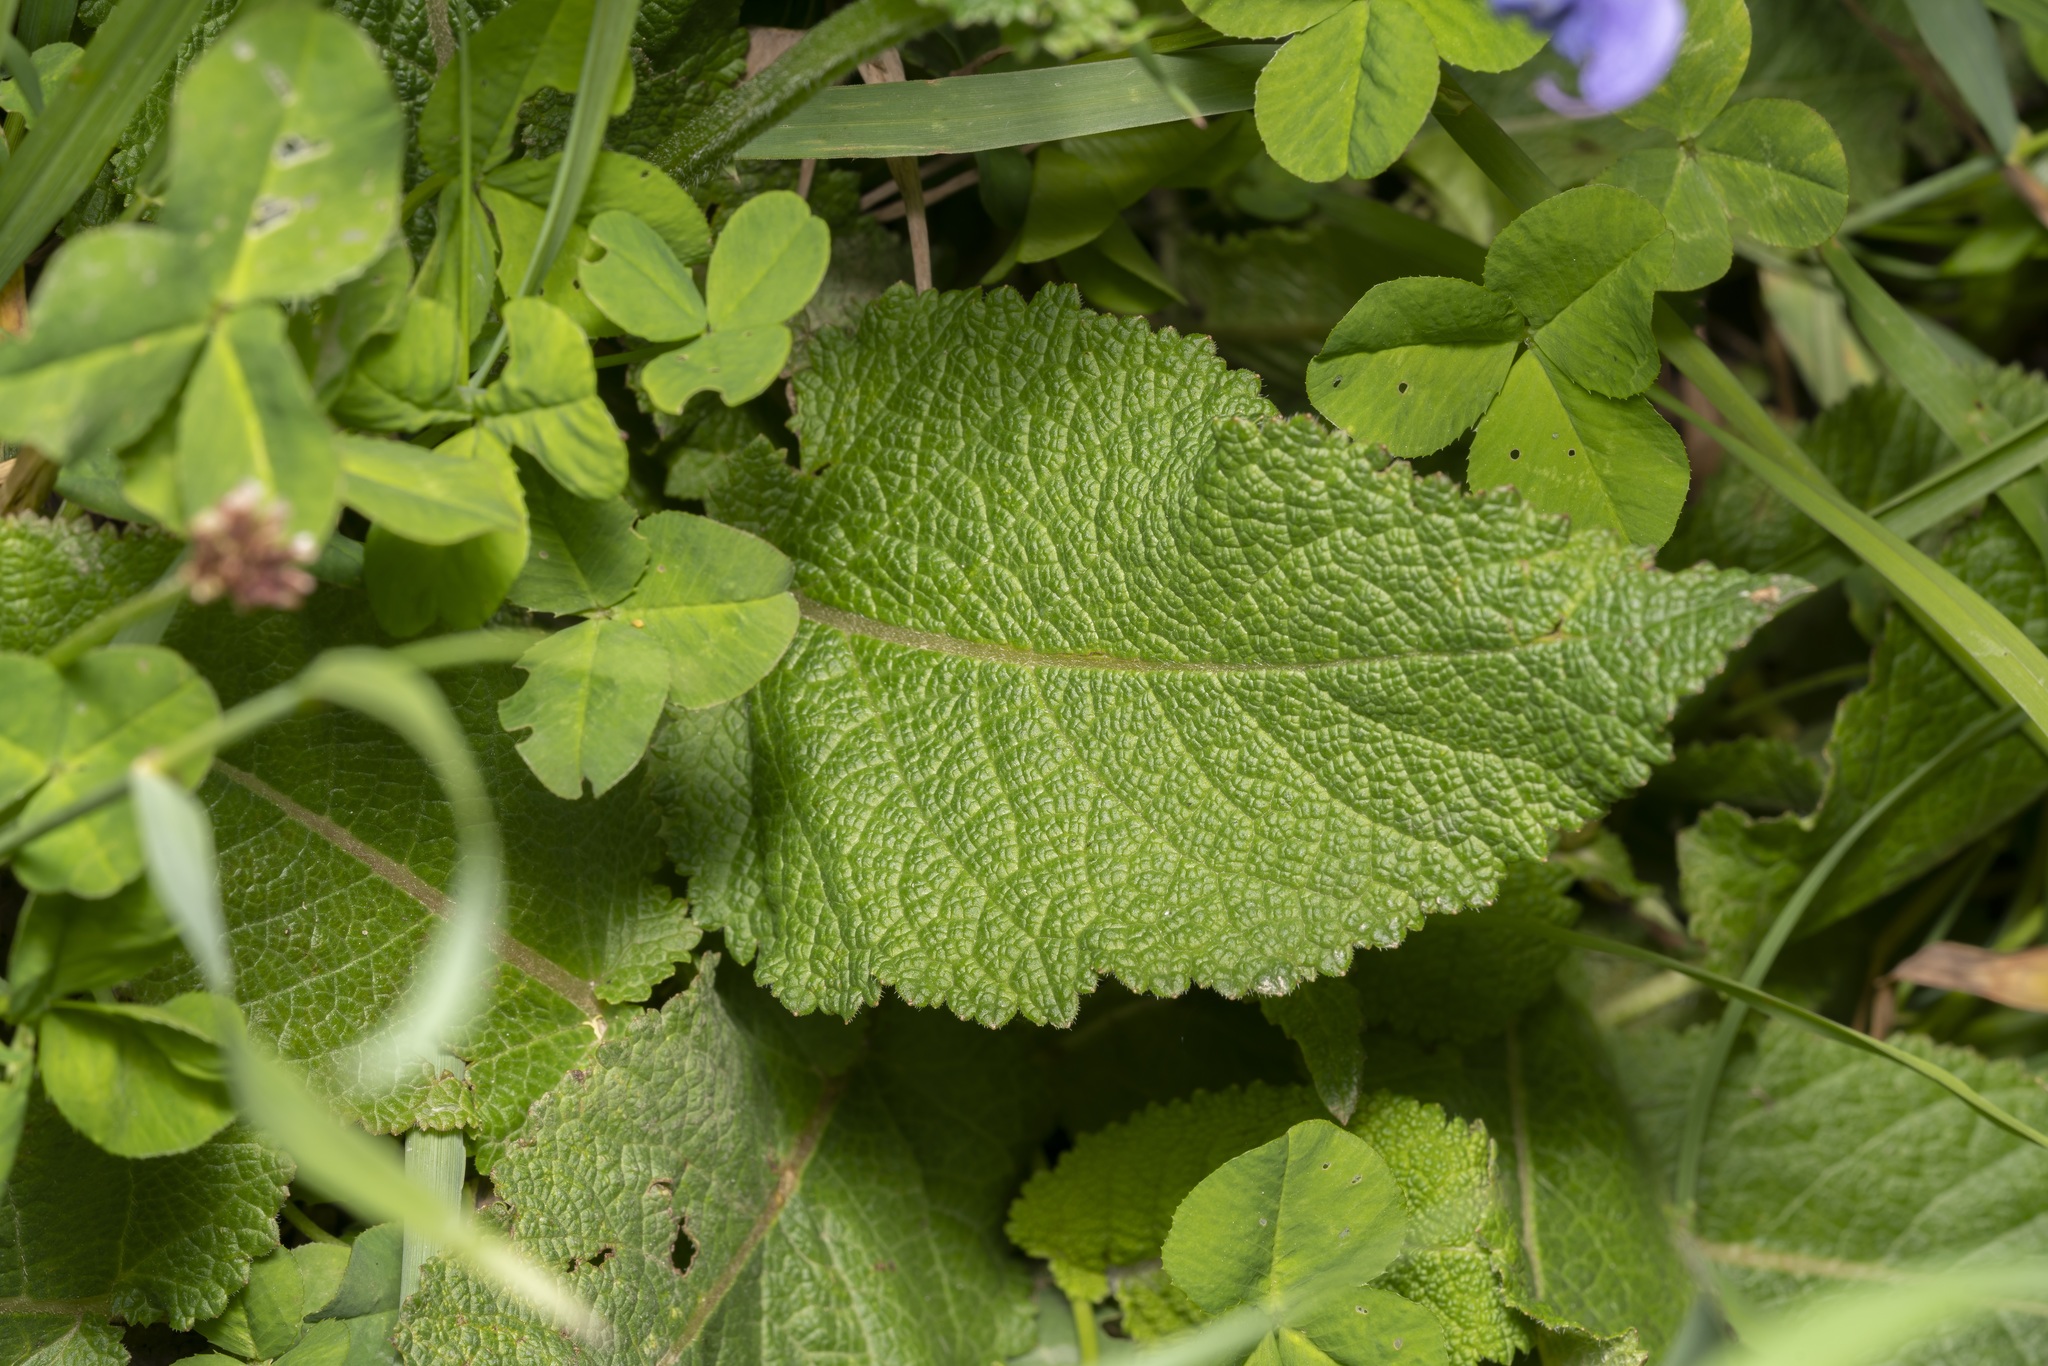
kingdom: Plantae
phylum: Tracheophyta
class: Magnoliopsida
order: Lamiales
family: Lamiaceae
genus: Salvia
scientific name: Salvia pratensis
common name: Meadow sage
